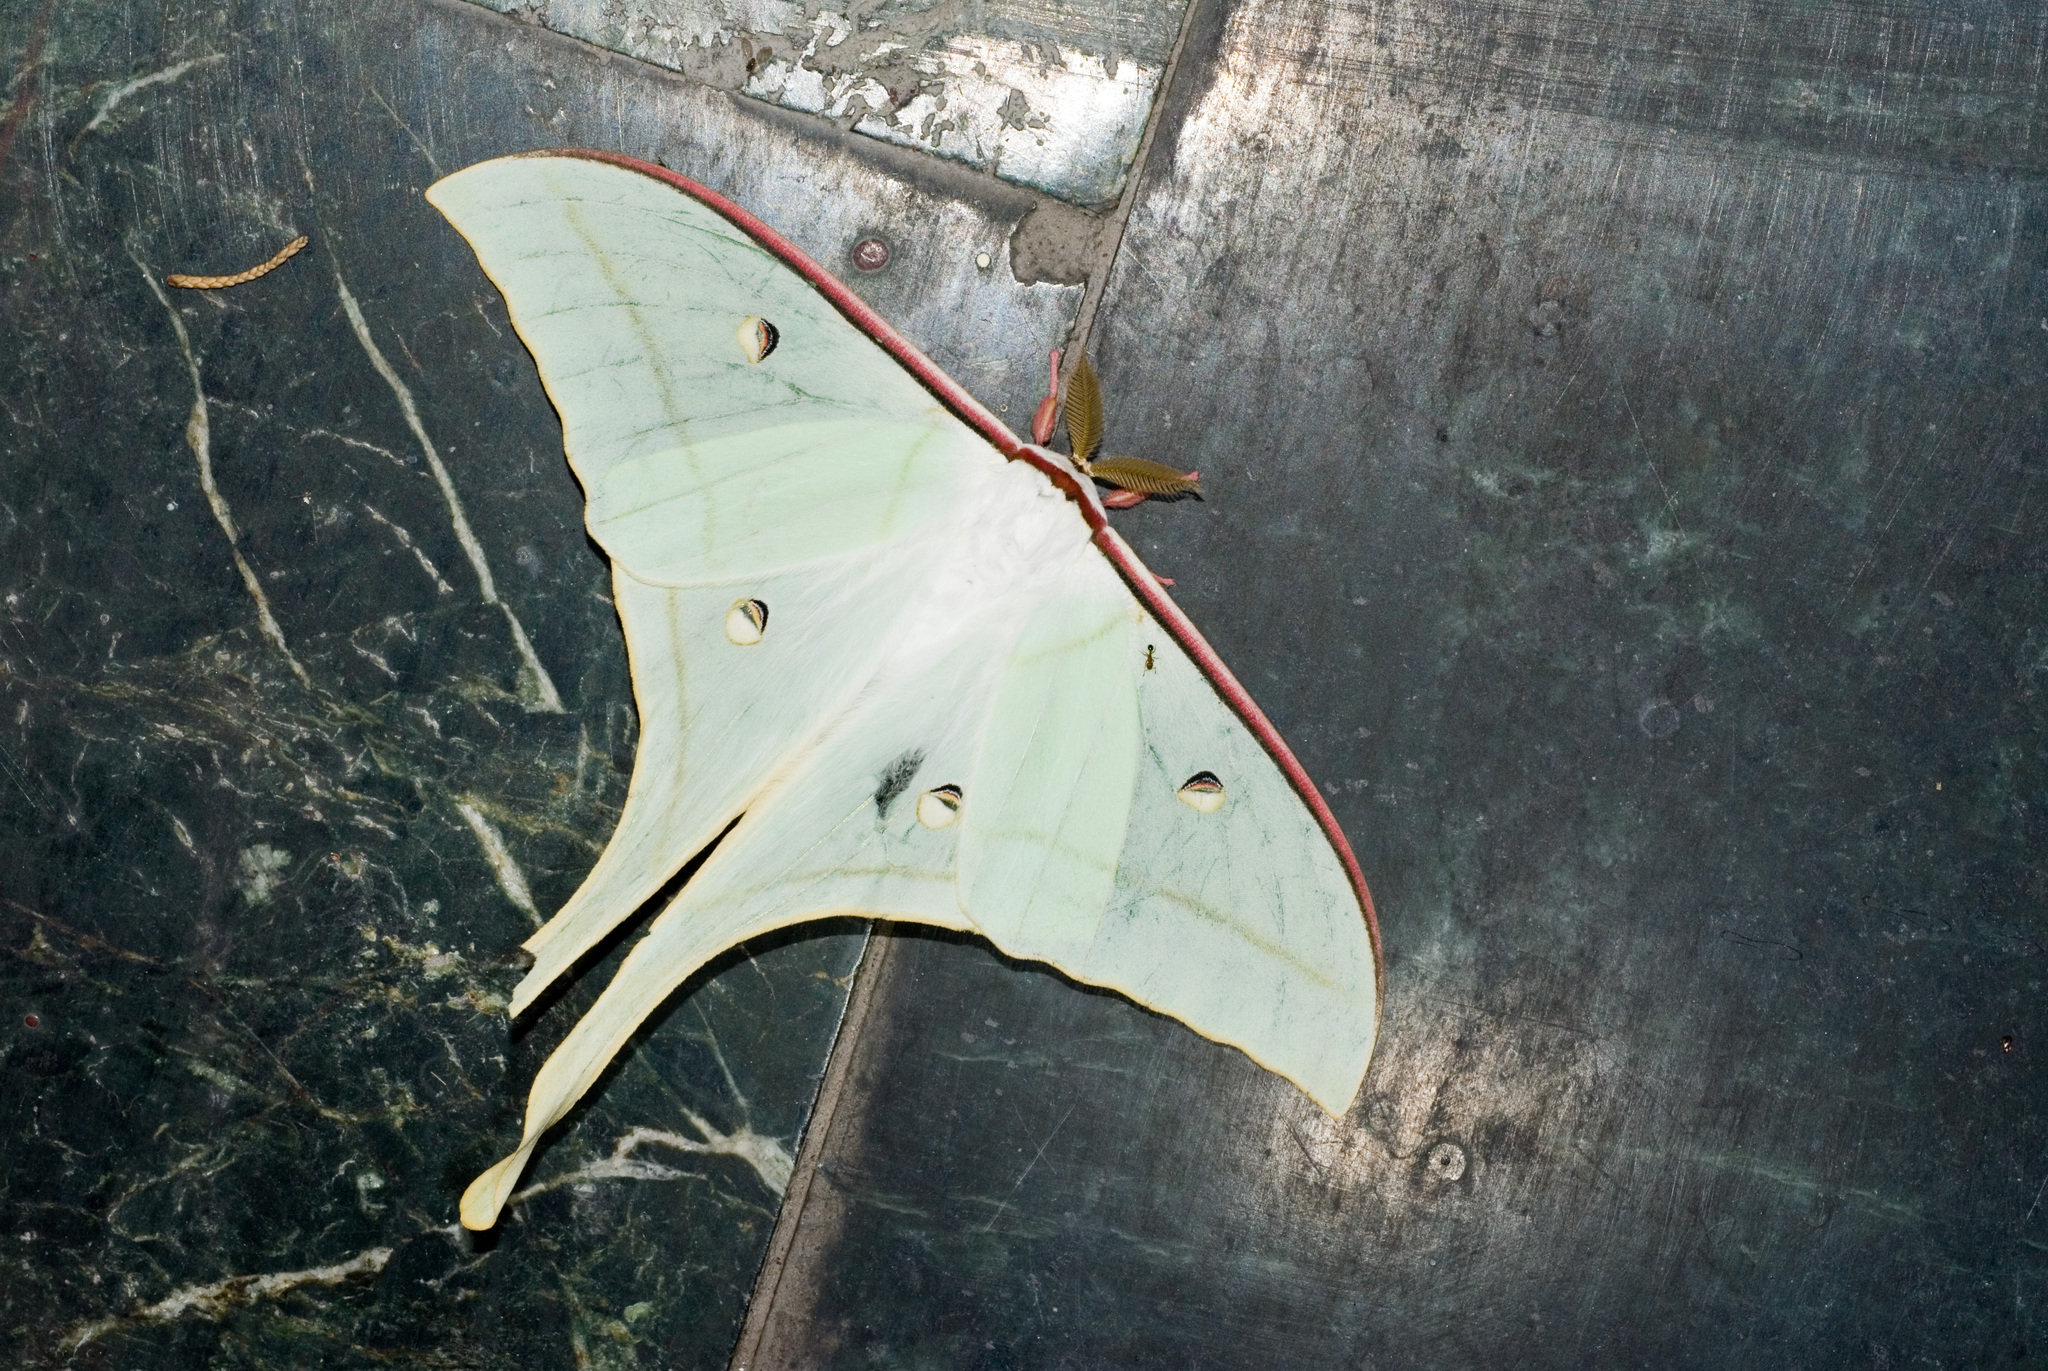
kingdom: Animalia
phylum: Arthropoda
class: Insecta
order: Lepidoptera
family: Saturniidae
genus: Actias
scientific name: Actias ningpoana
